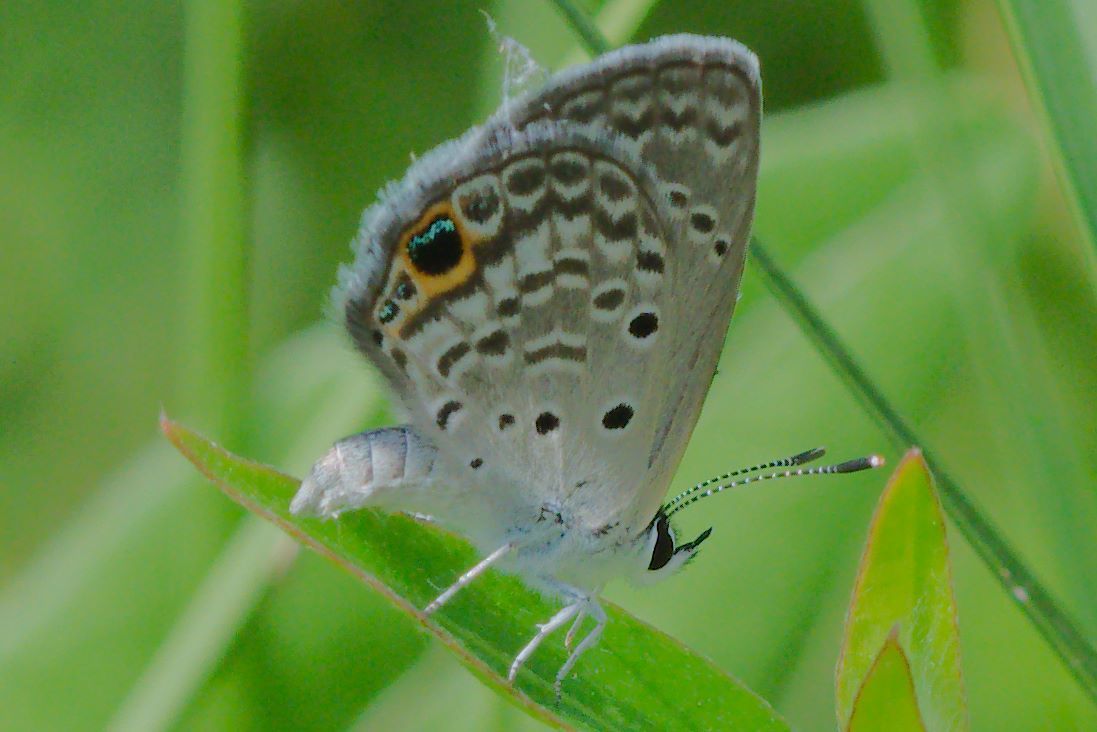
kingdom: Animalia
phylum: Arthropoda
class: Insecta
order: Lepidoptera
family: Lycaenidae
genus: Hemiargus
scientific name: Hemiargus ceraunus
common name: Ceraunus blue
